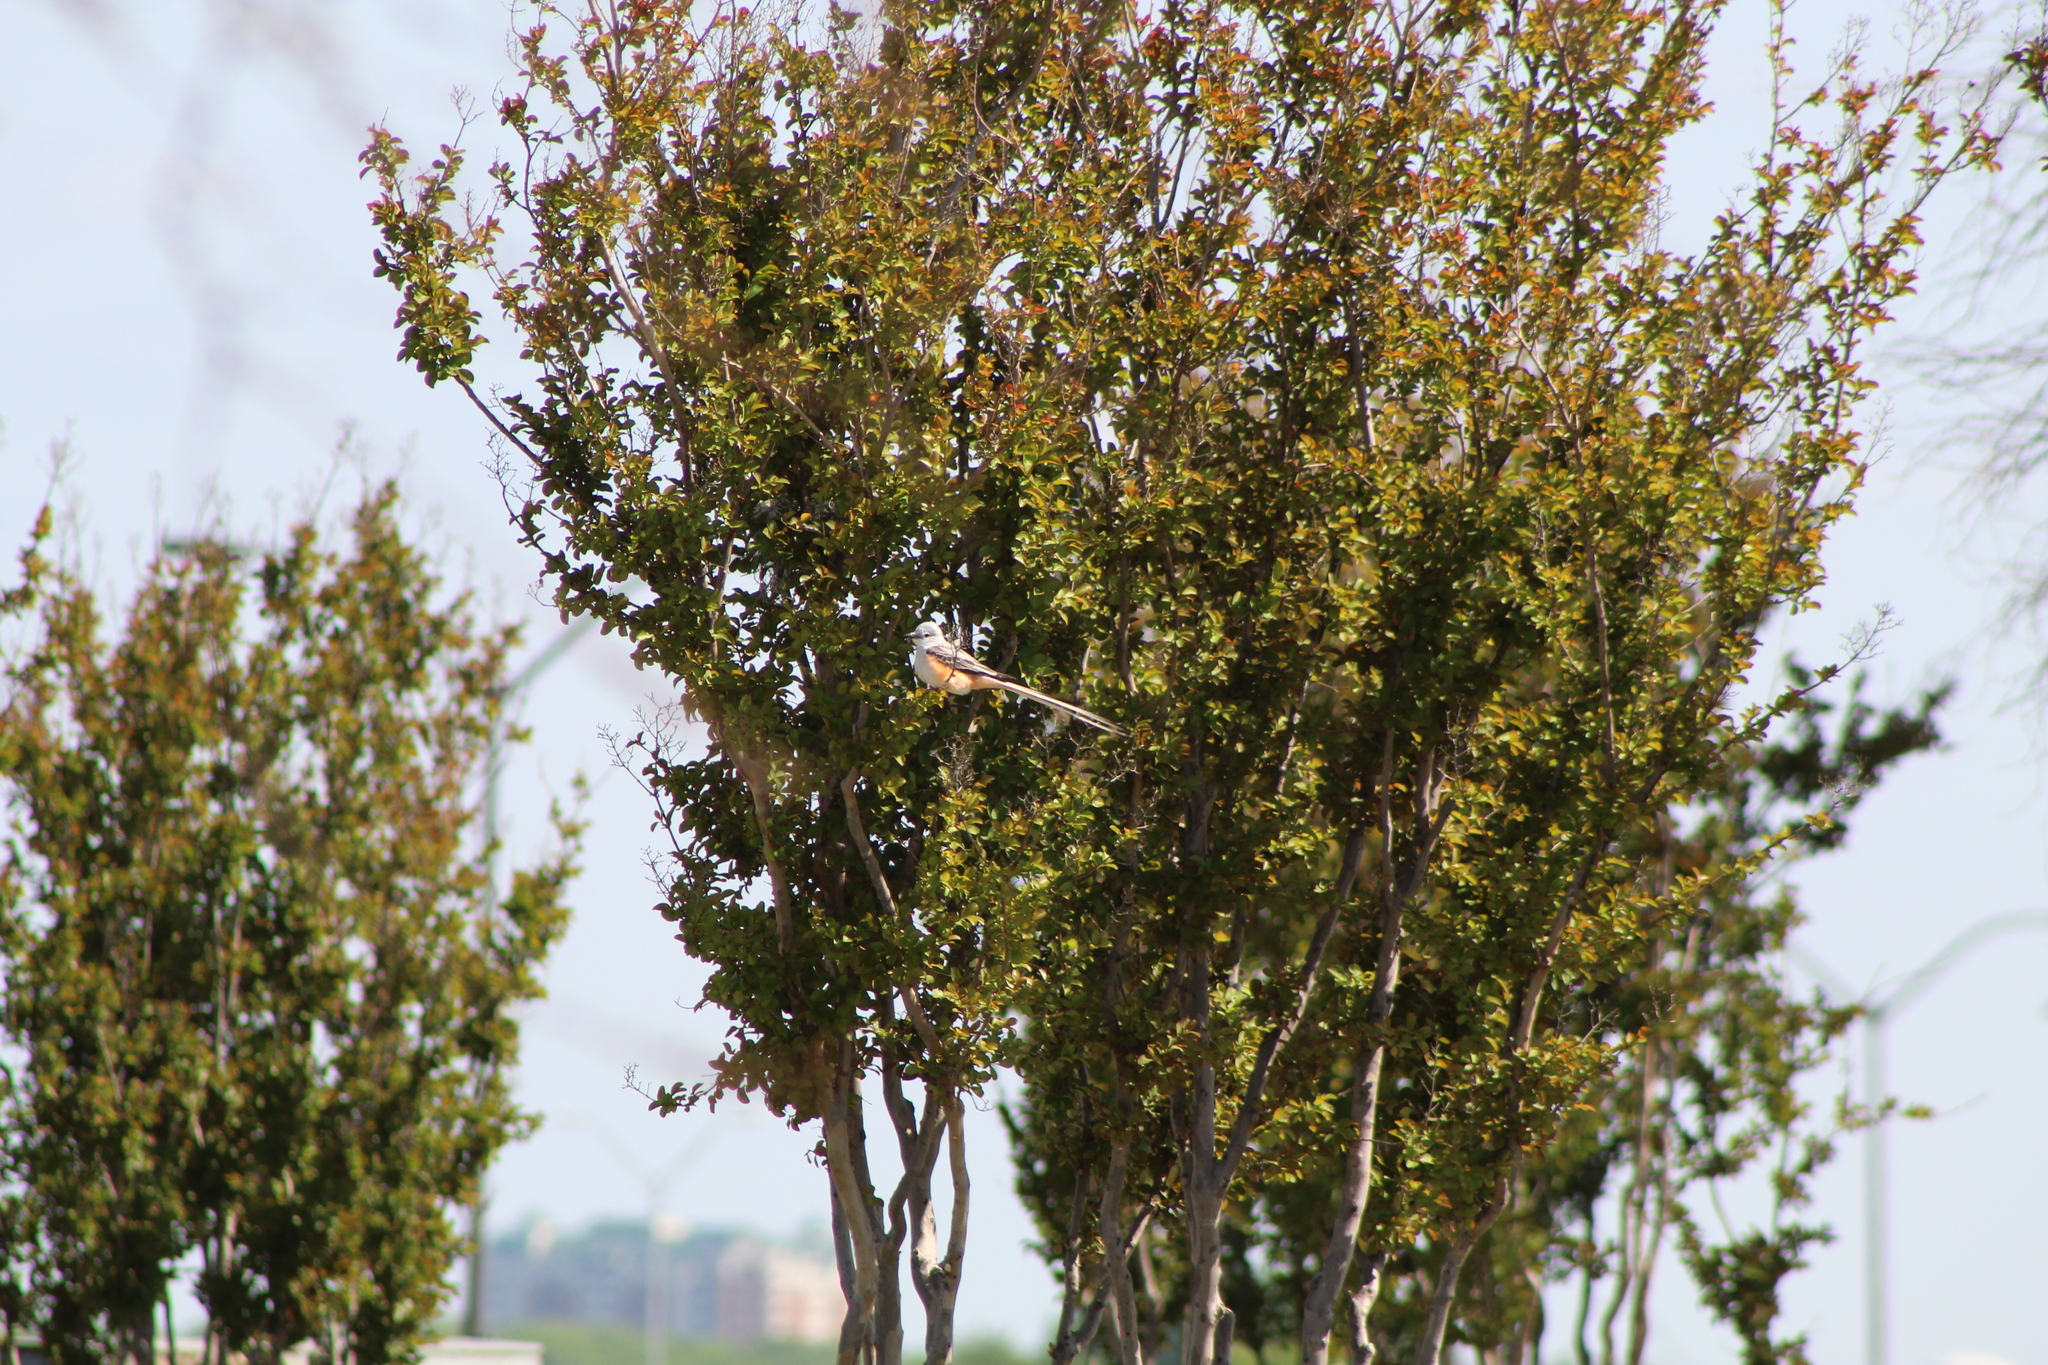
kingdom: Animalia
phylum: Chordata
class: Aves
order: Passeriformes
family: Tyrannidae
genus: Tyrannus
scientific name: Tyrannus forficatus
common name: Scissor-tailed flycatcher
